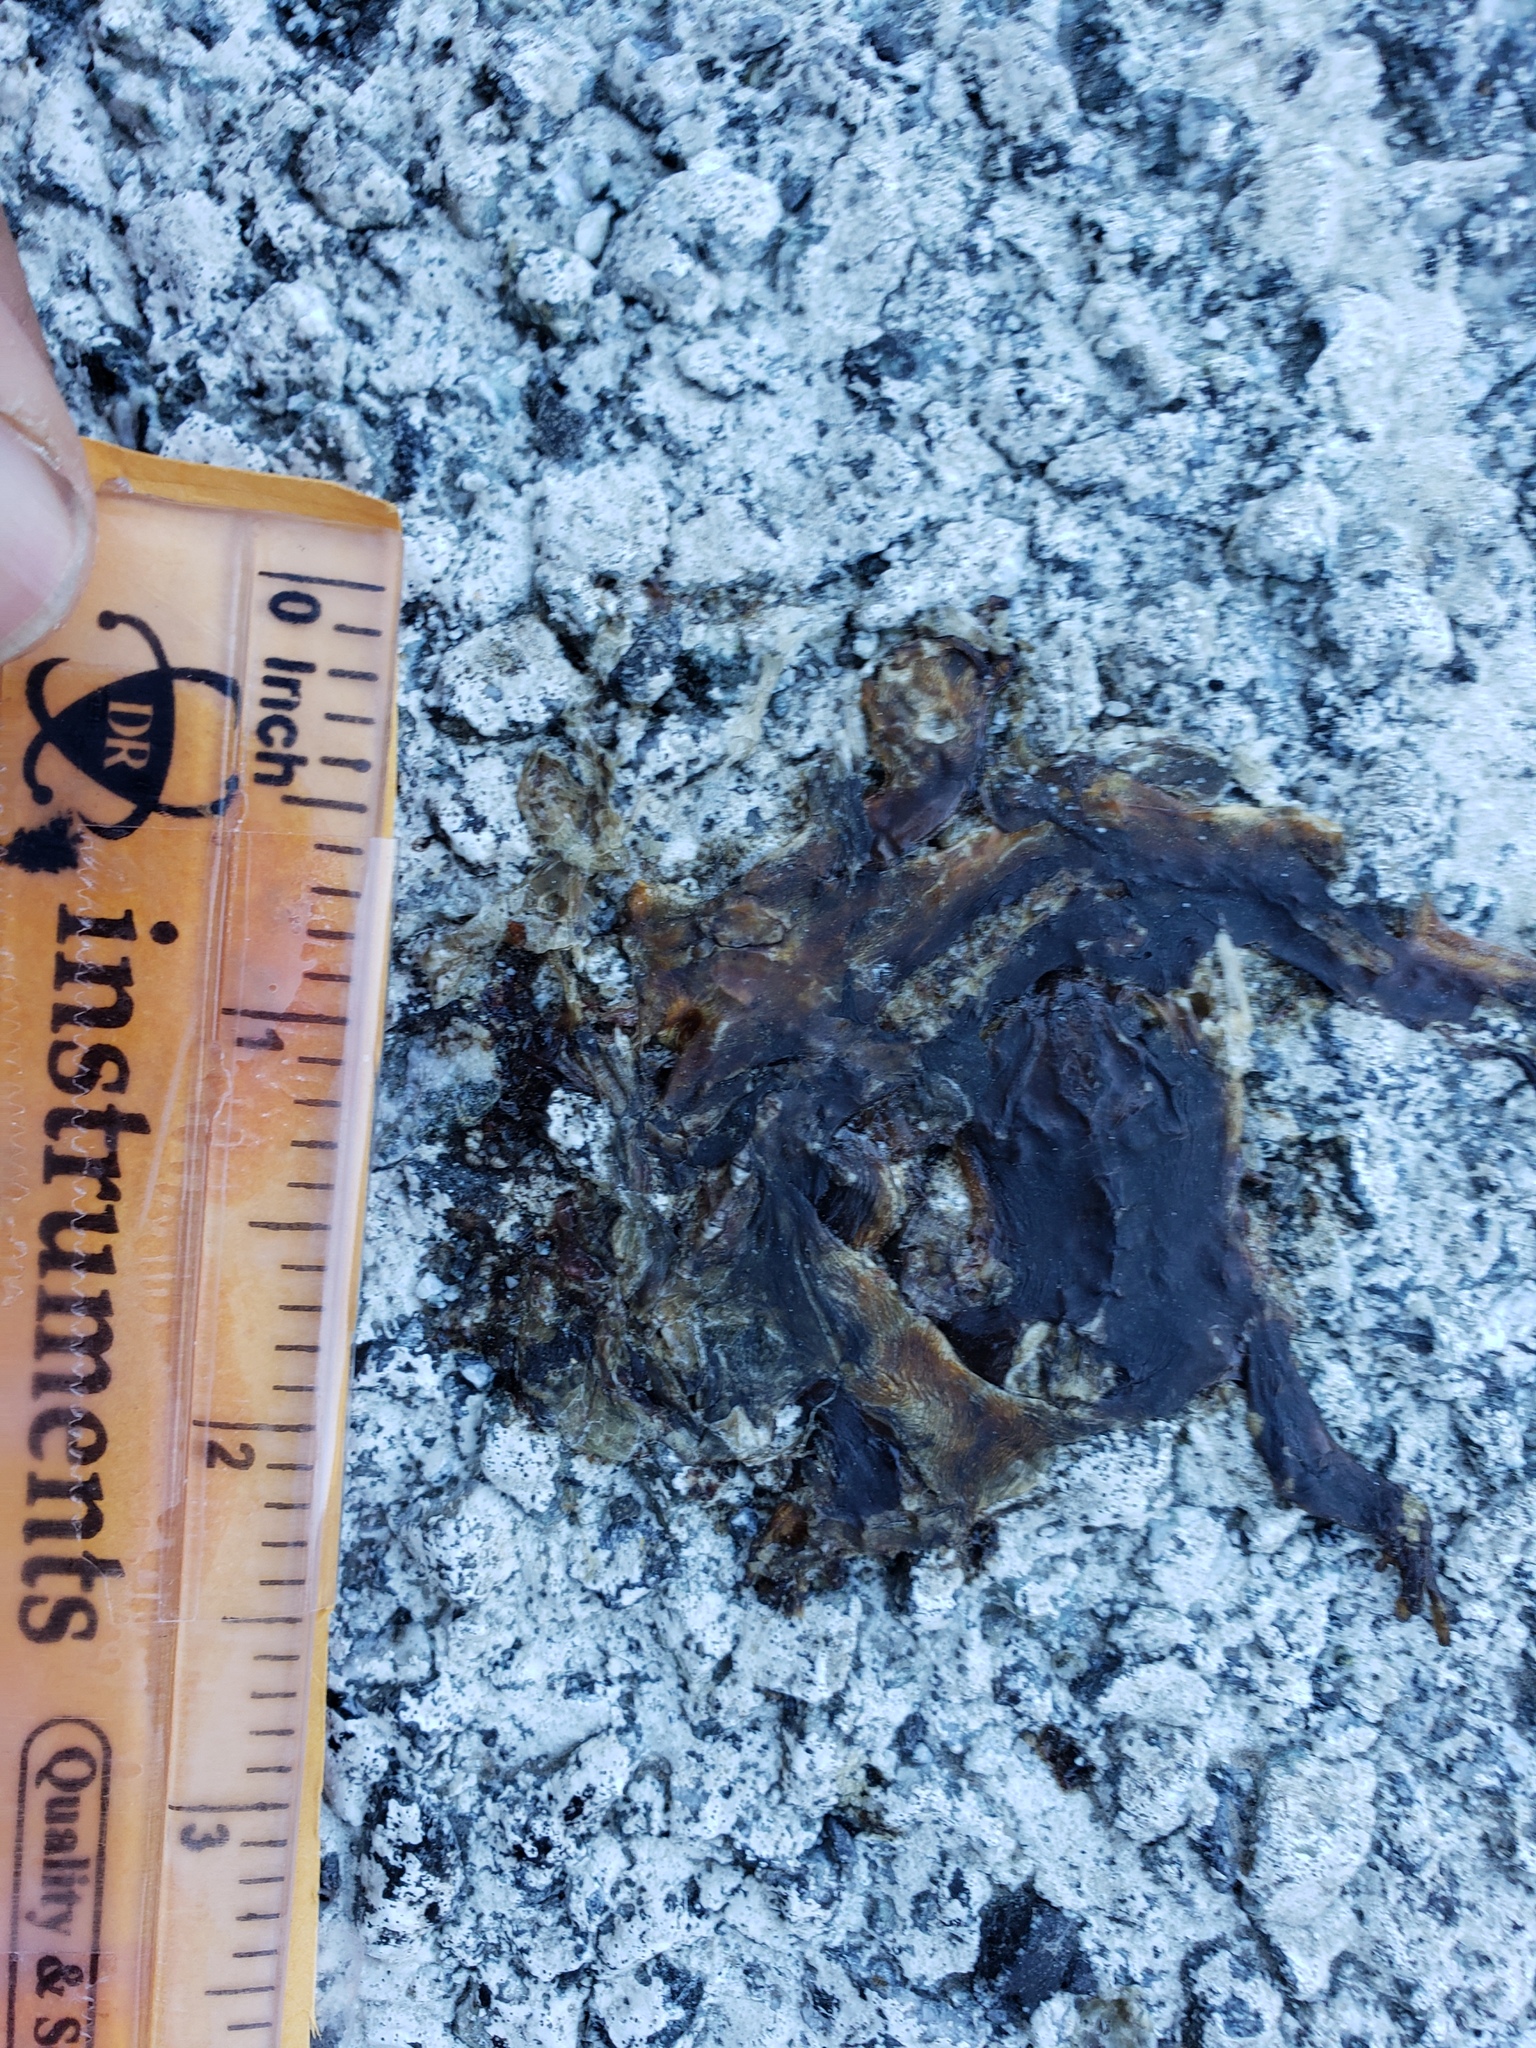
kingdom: Animalia
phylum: Chordata
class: Amphibia
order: Caudata
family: Salamandridae
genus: Taricha
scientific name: Taricha
